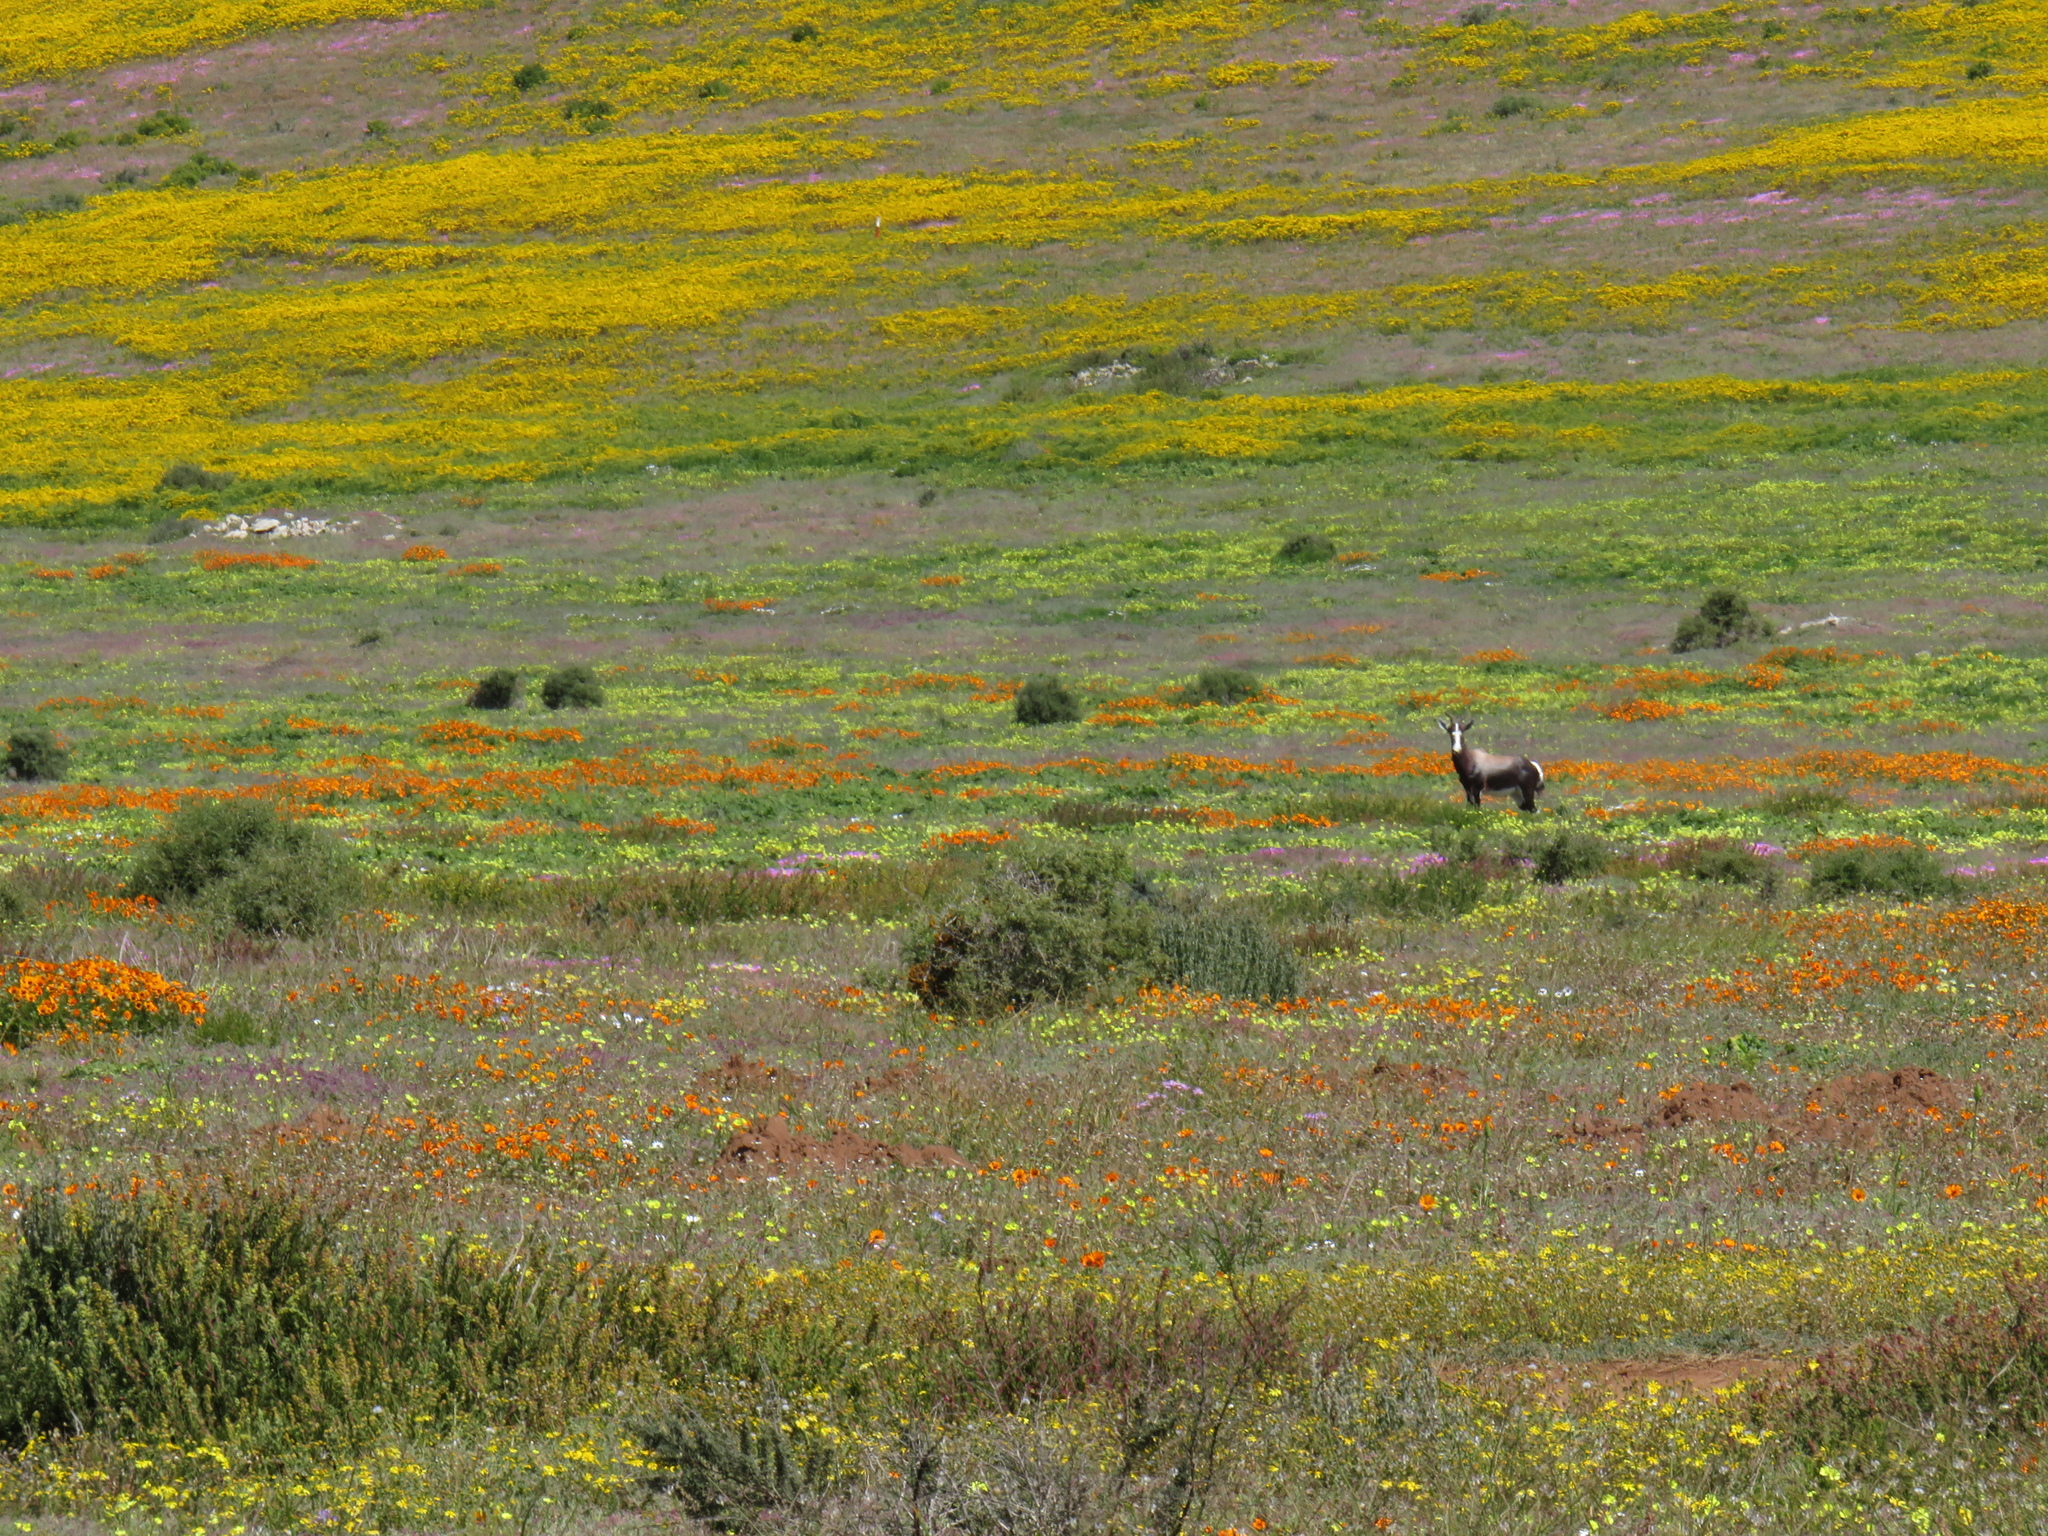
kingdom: Animalia
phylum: Chordata
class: Mammalia
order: Artiodactyla
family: Bovidae
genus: Damaliscus
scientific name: Damaliscus pygargus
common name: Bontebok
